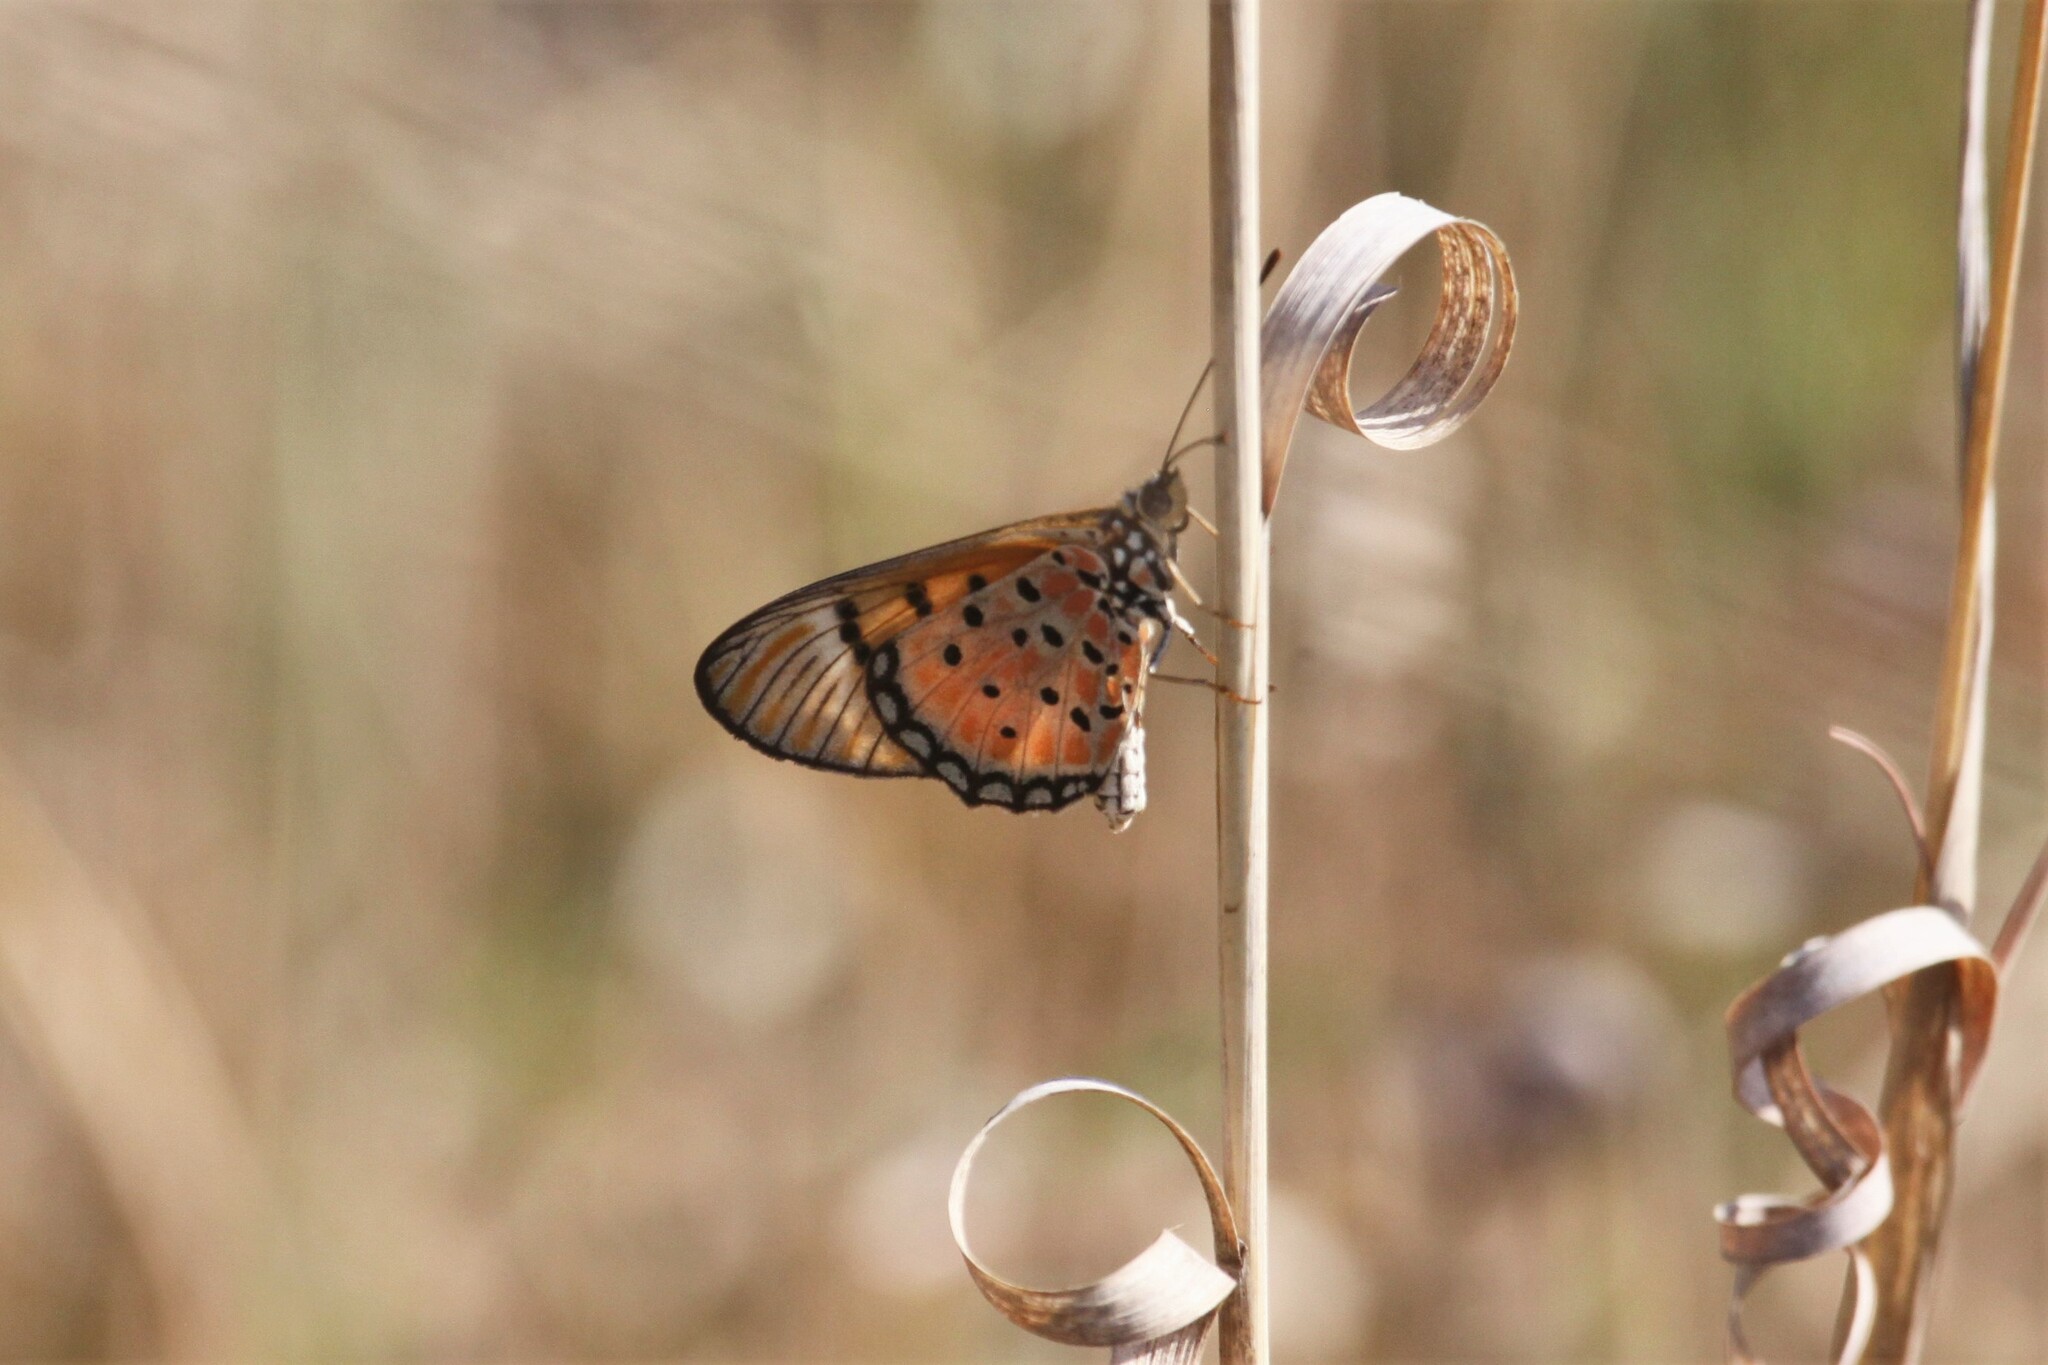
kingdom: Animalia
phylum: Arthropoda
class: Insecta
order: Lepidoptera
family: Nymphalidae
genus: Stephenia
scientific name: Stephenia
